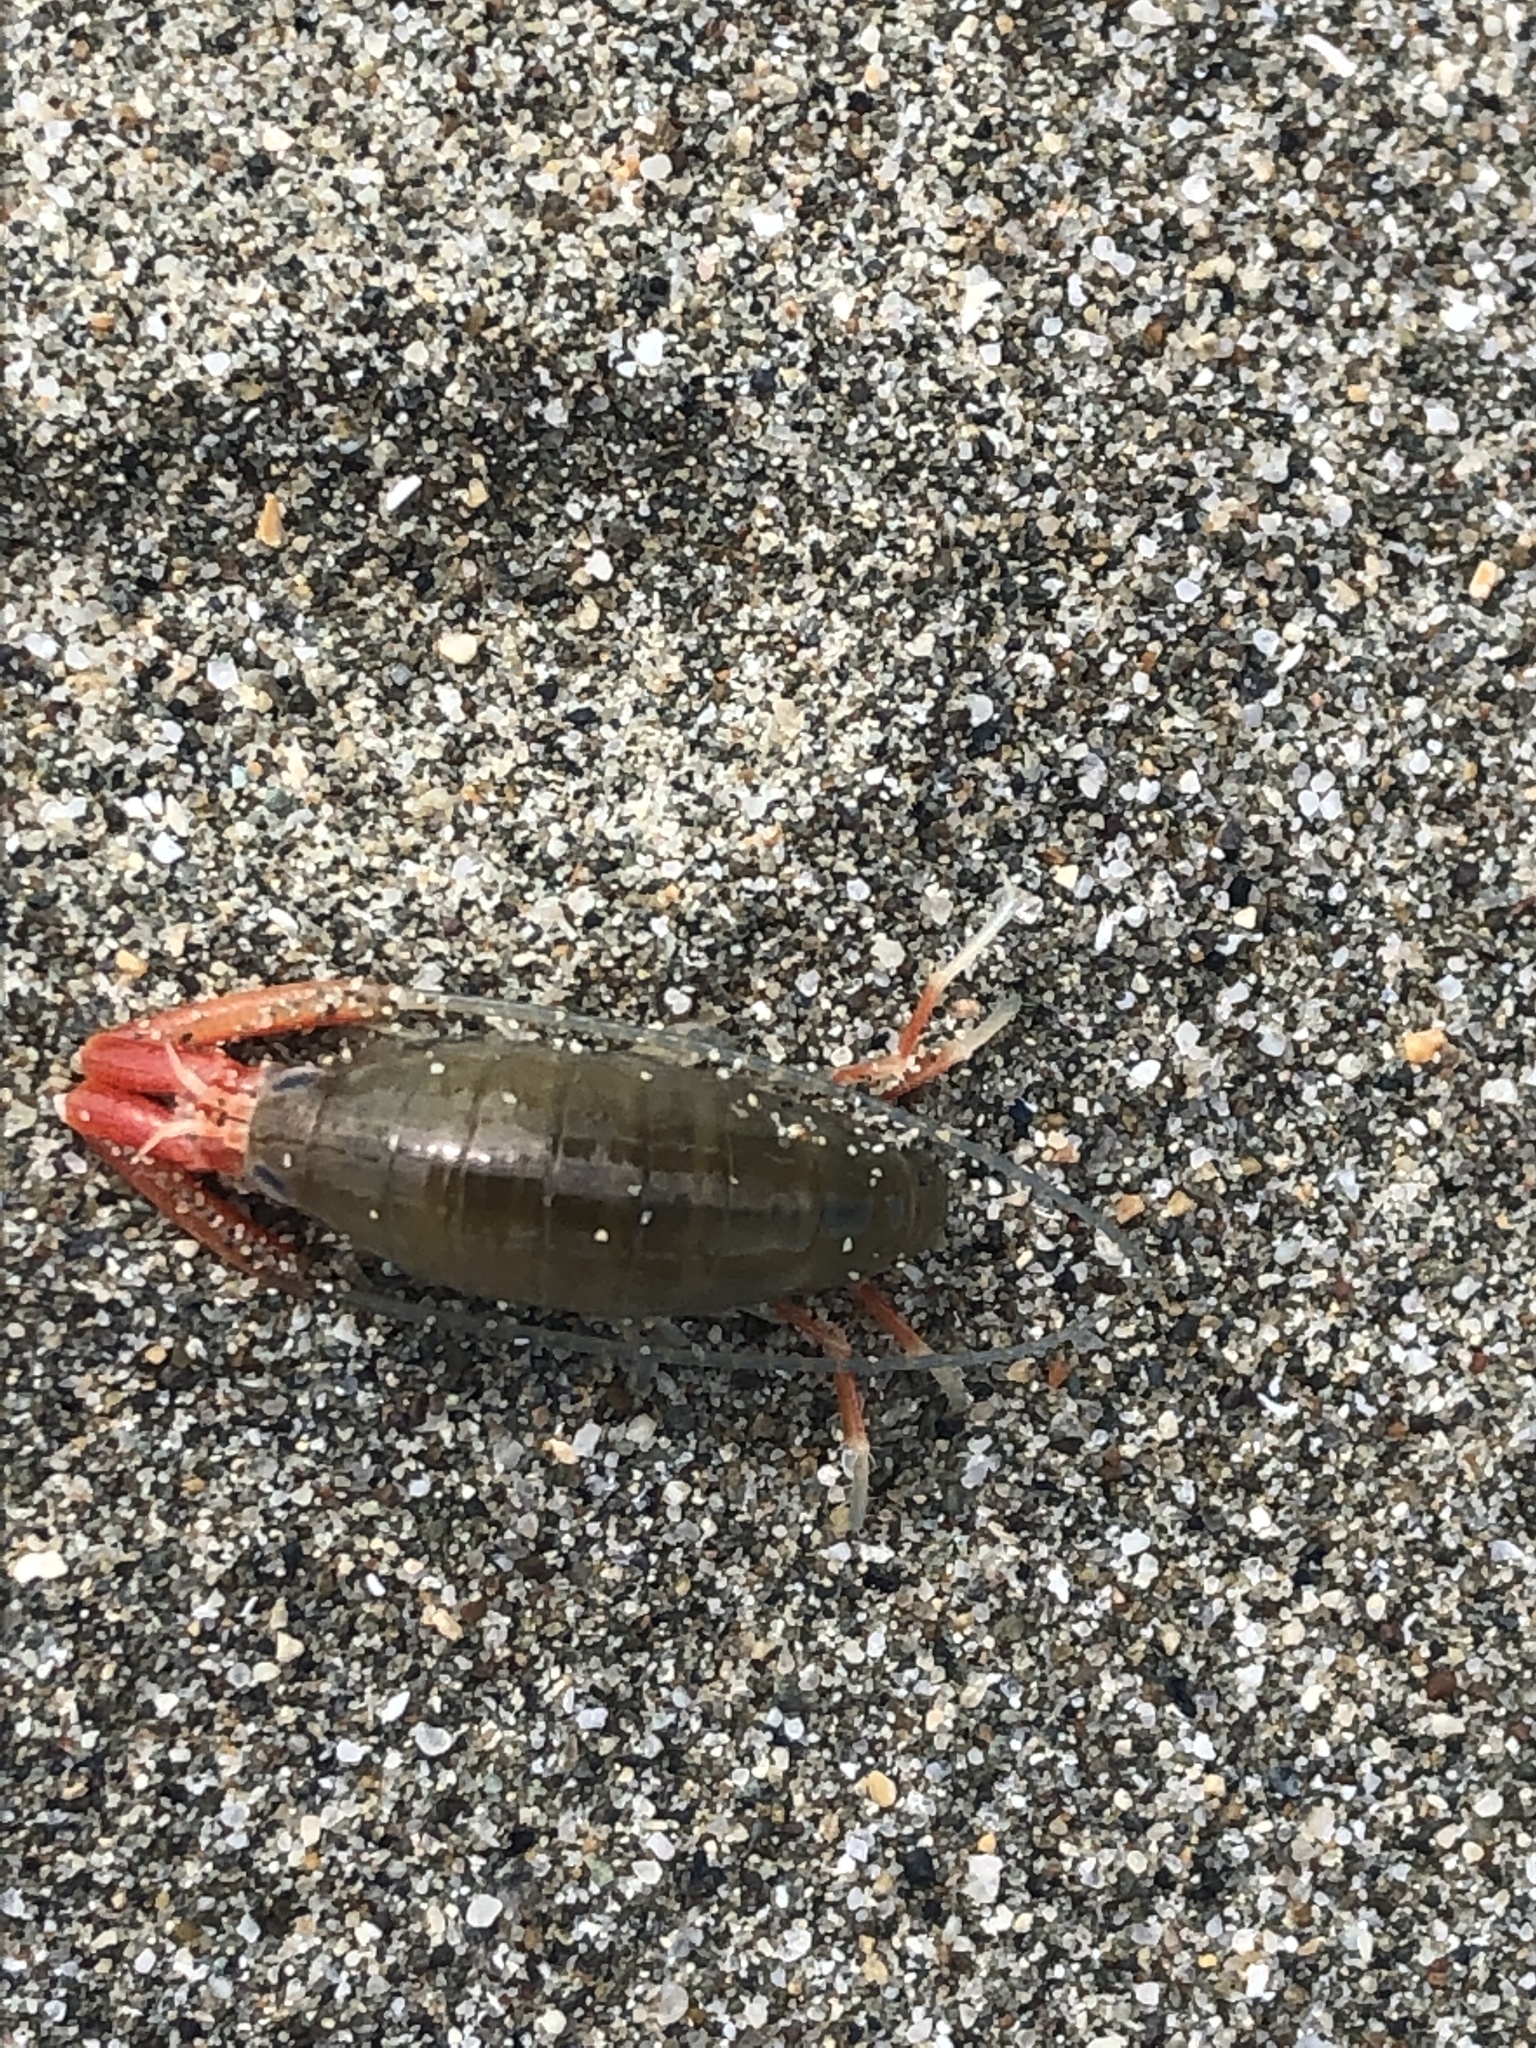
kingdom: Animalia
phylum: Arthropoda
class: Malacostraca
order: Amphipoda
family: Talitridae
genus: Megalorchestia
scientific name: Megalorchestia californiana
